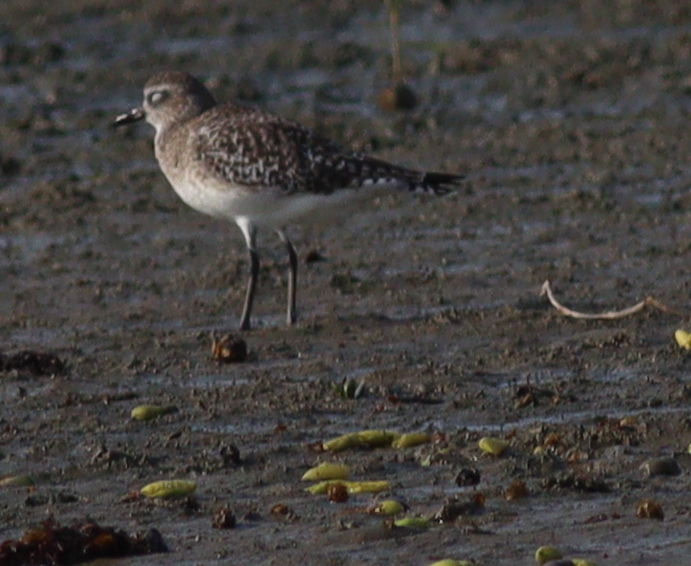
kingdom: Animalia
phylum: Chordata
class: Aves
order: Charadriiformes
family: Charadriidae
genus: Pluvialis
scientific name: Pluvialis squatarola
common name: Grey plover
